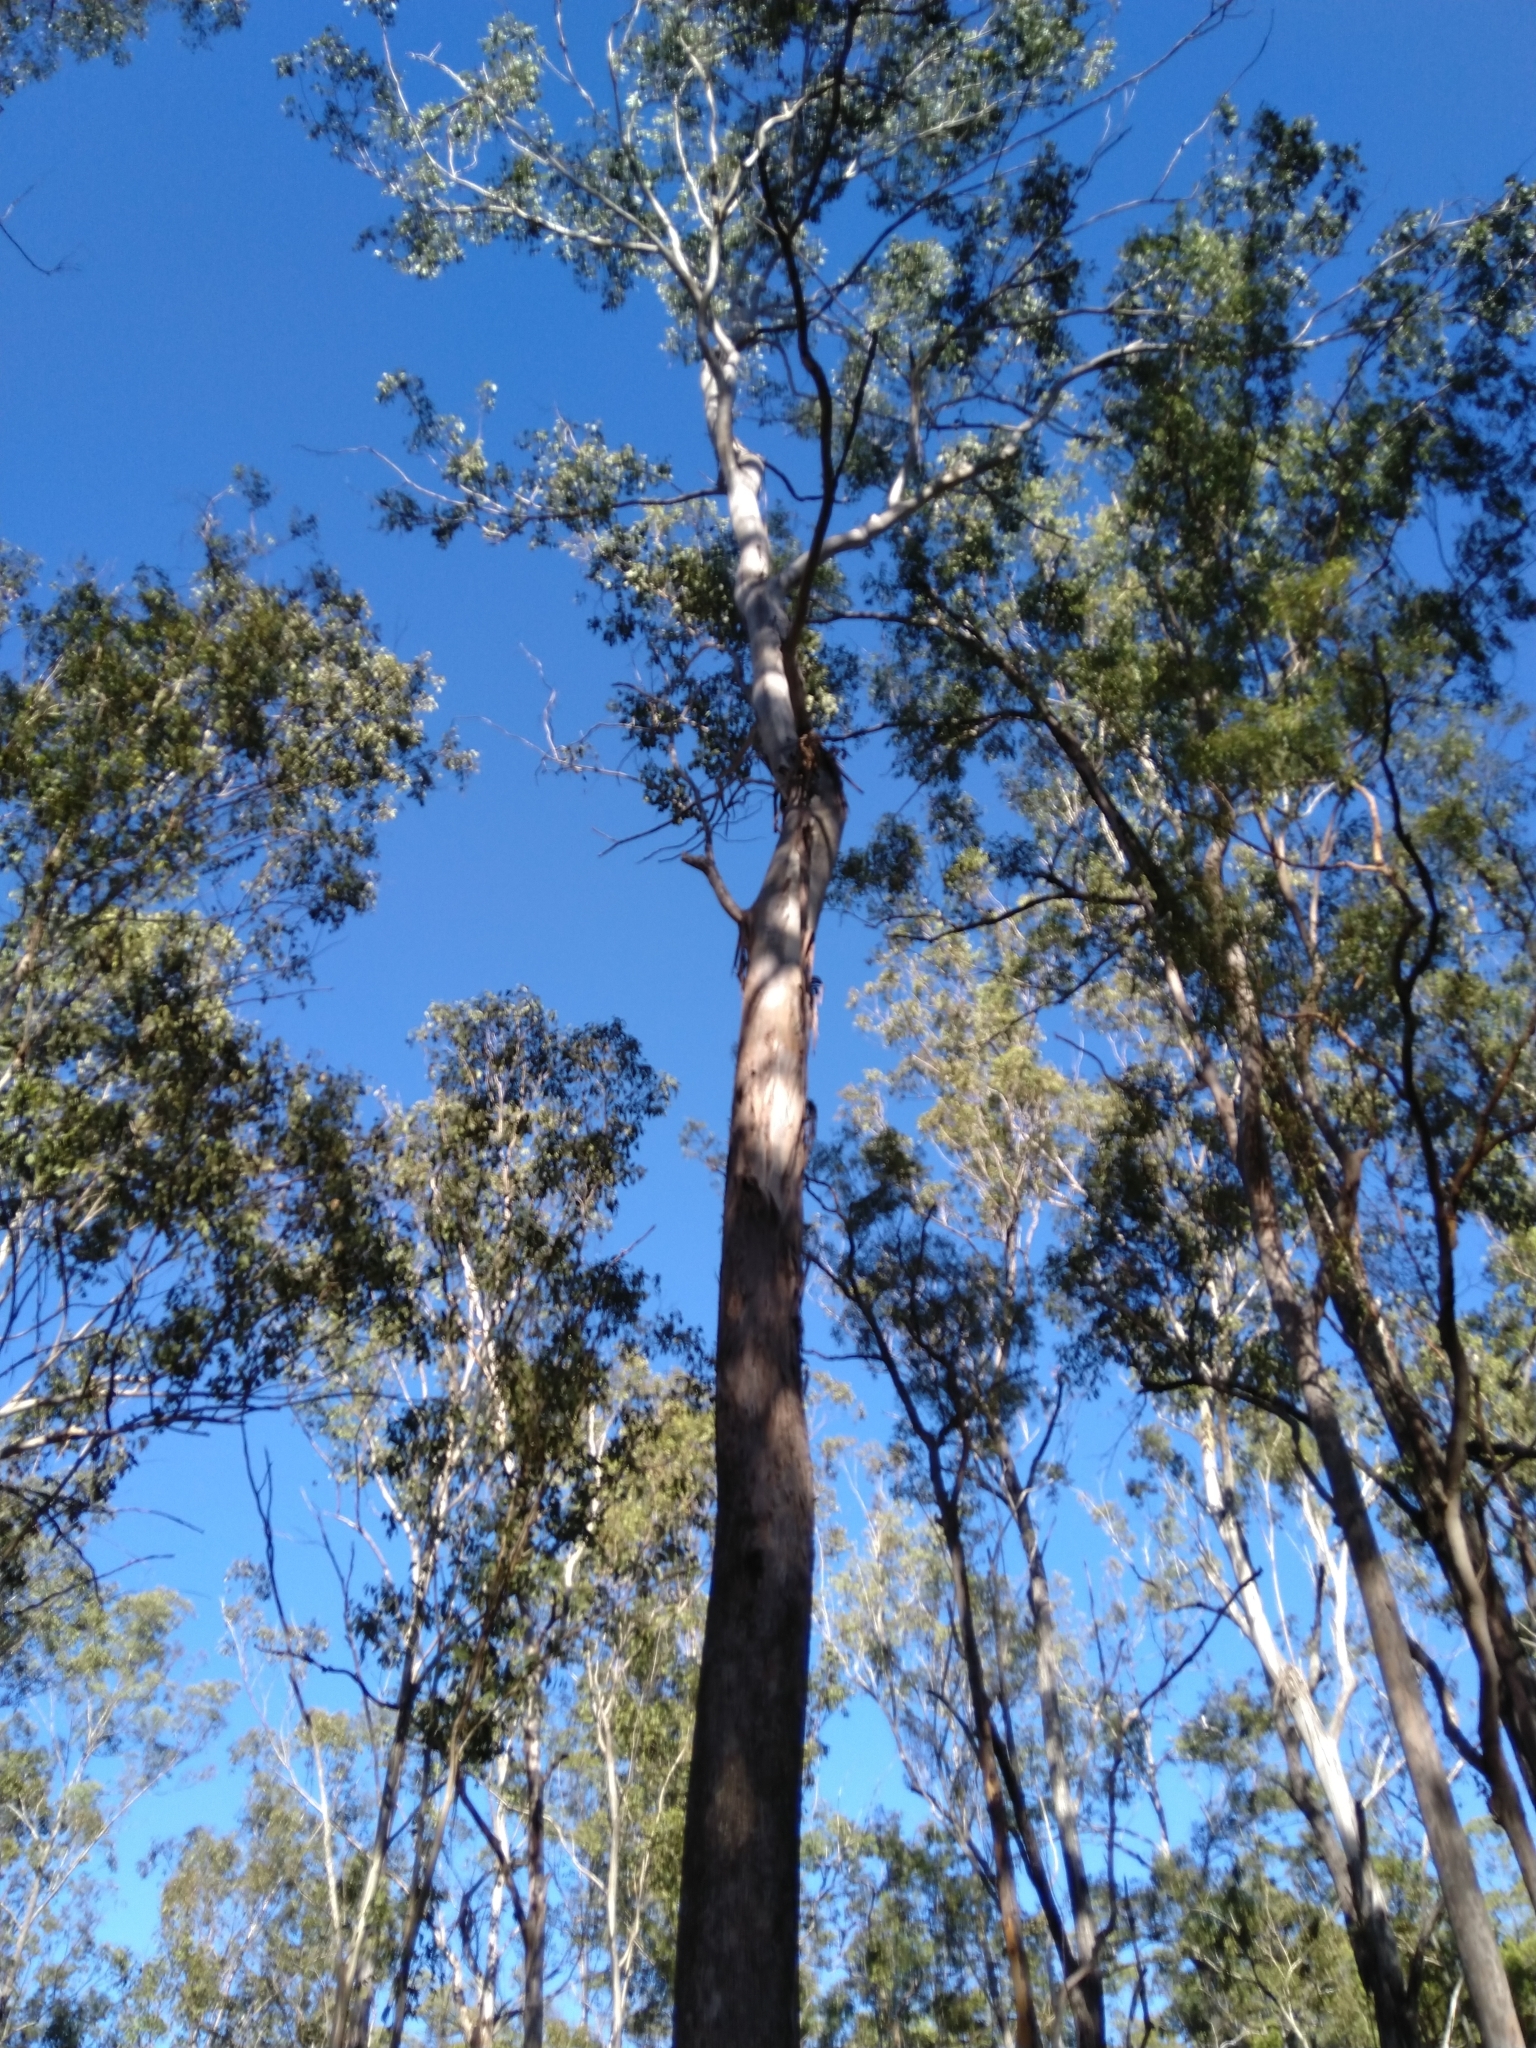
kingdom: Plantae
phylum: Tracheophyta
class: Magnoliopsida
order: Myrtales
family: Myrtaceae
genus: Eucalyptus
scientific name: Eucalyptus moluccana
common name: Grey-box
